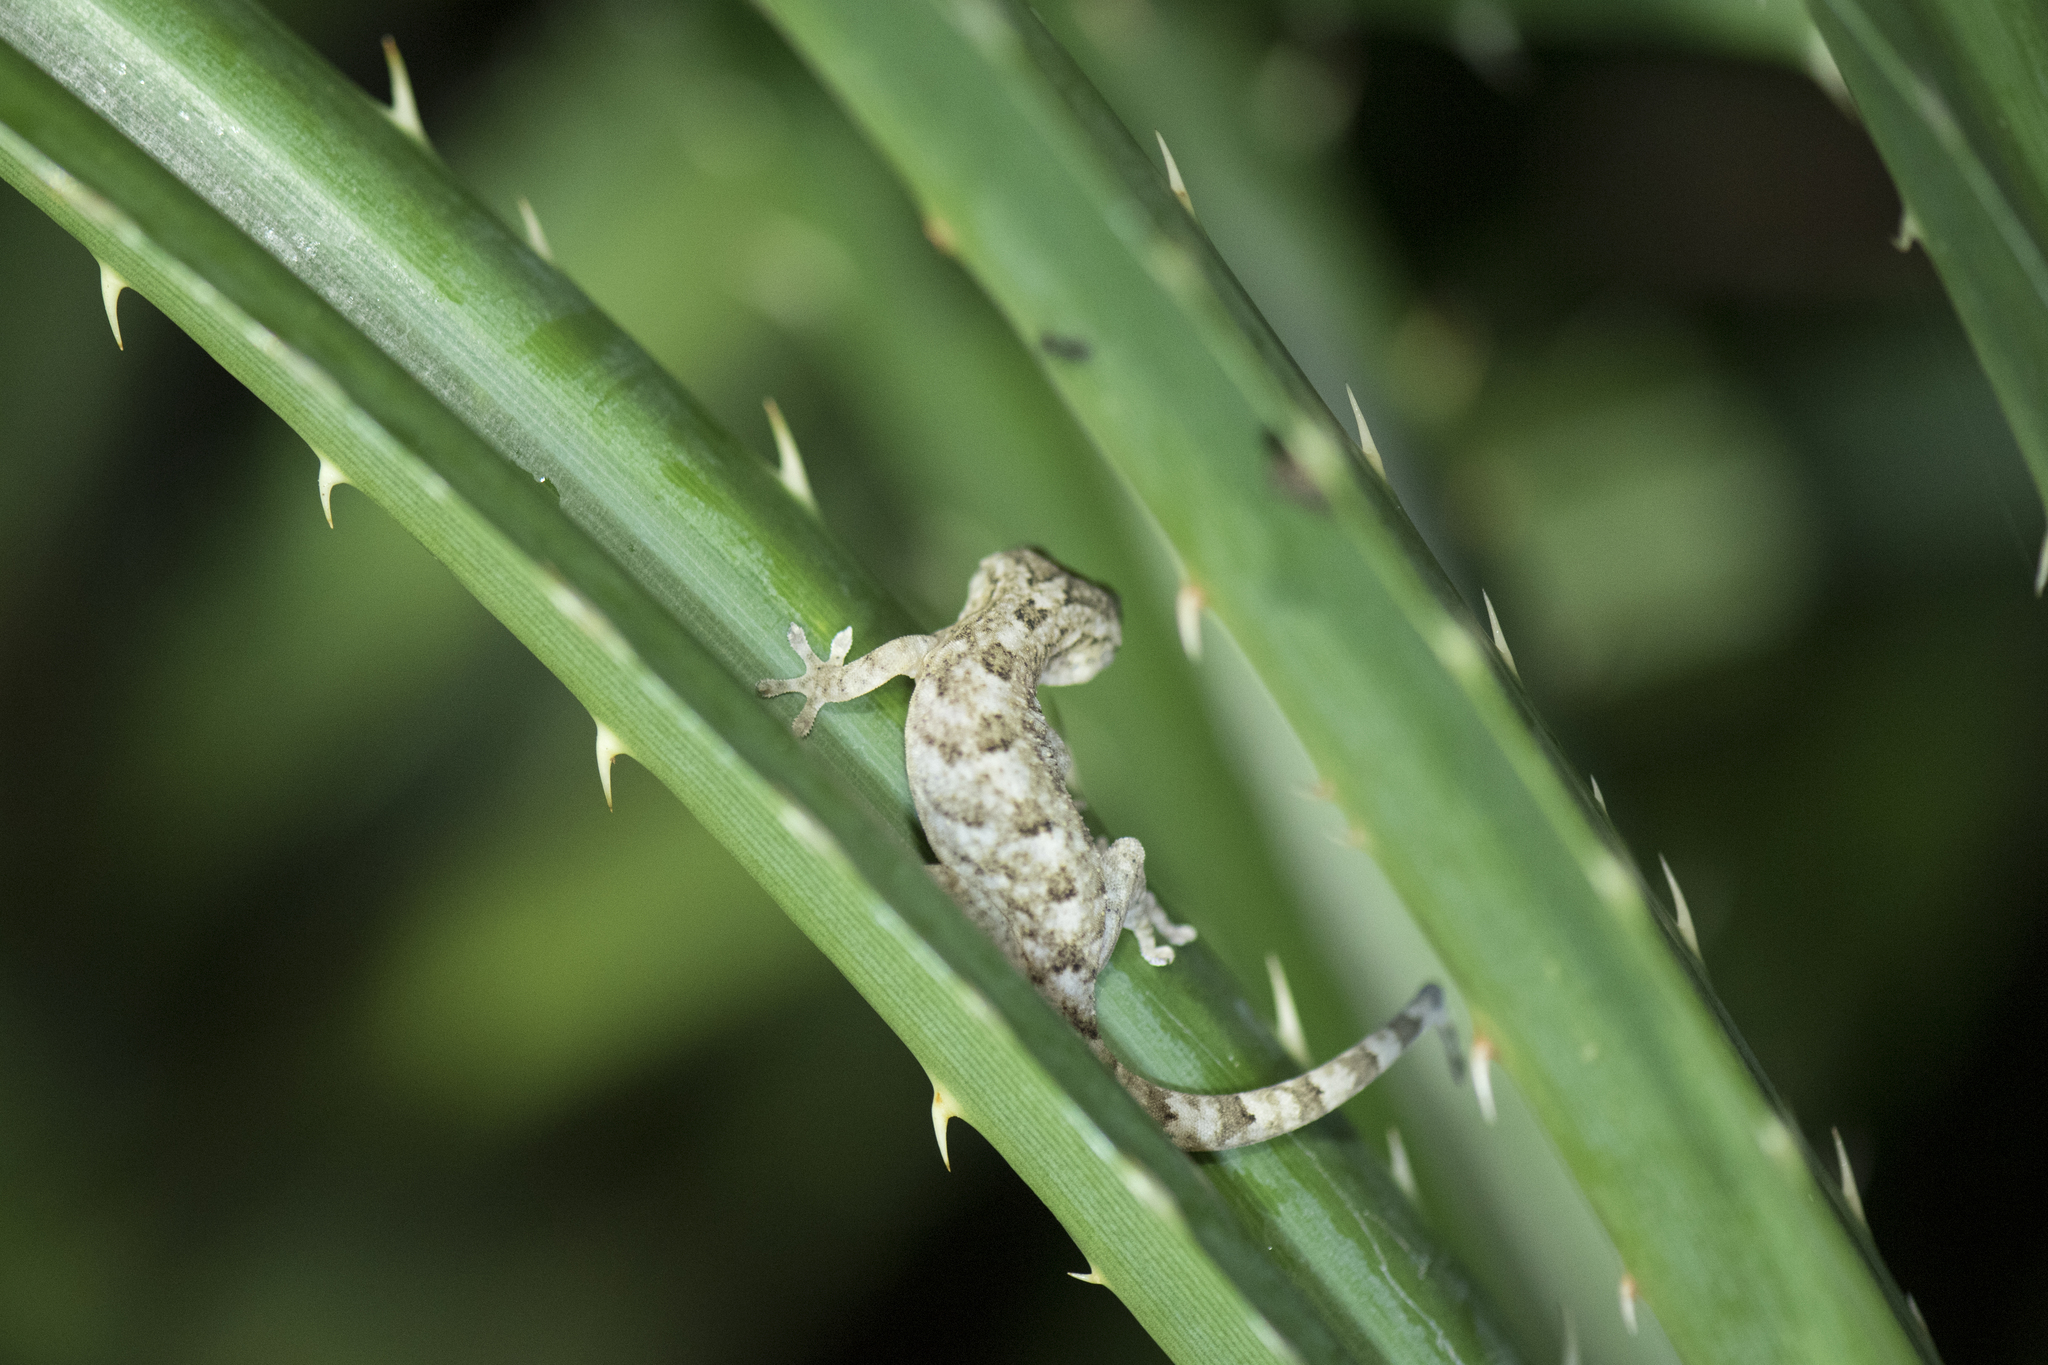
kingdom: Animalia
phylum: Chordata
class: Squamata
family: Gekkonidae
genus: Gekko
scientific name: Gekko hokouensis
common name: Kwangsi gecko
